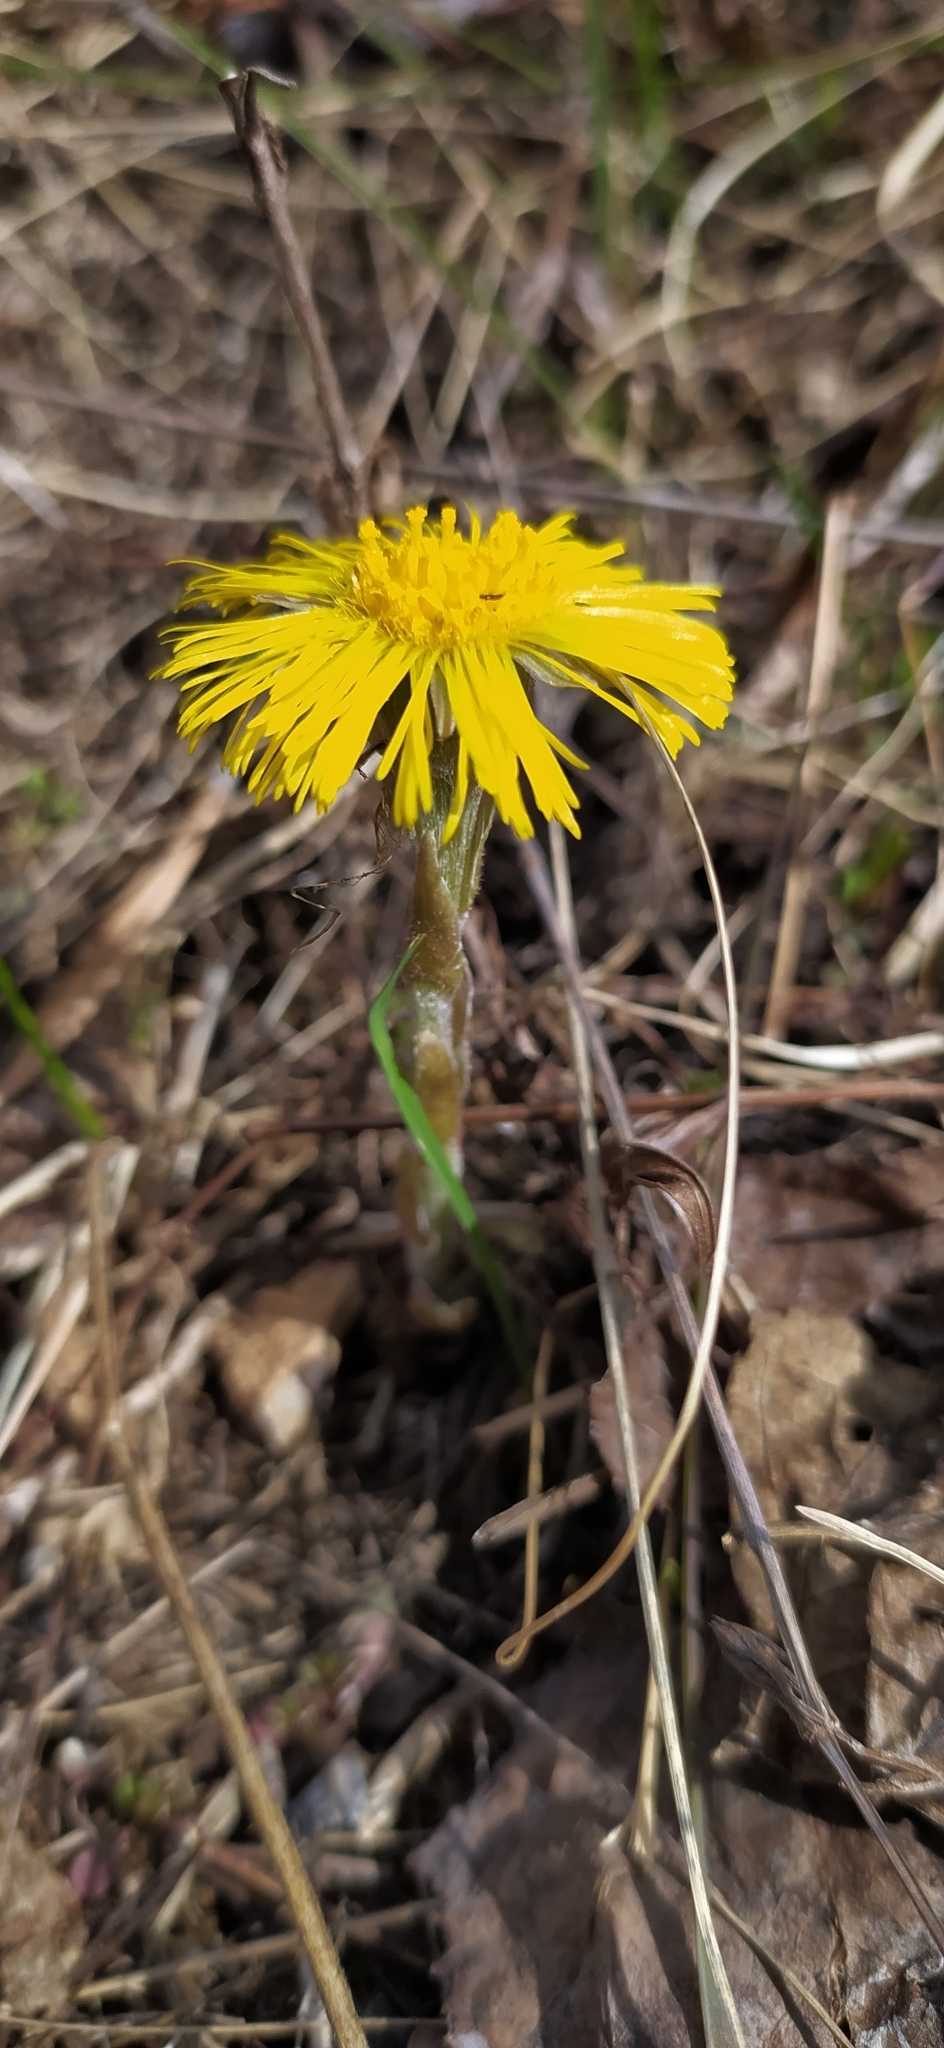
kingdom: Plantae
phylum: Tracheophyta
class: Magnoliopsida
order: Asterales
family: Asteraceae
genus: Tussilago
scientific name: Tussilago farfara
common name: Coltsfoot
